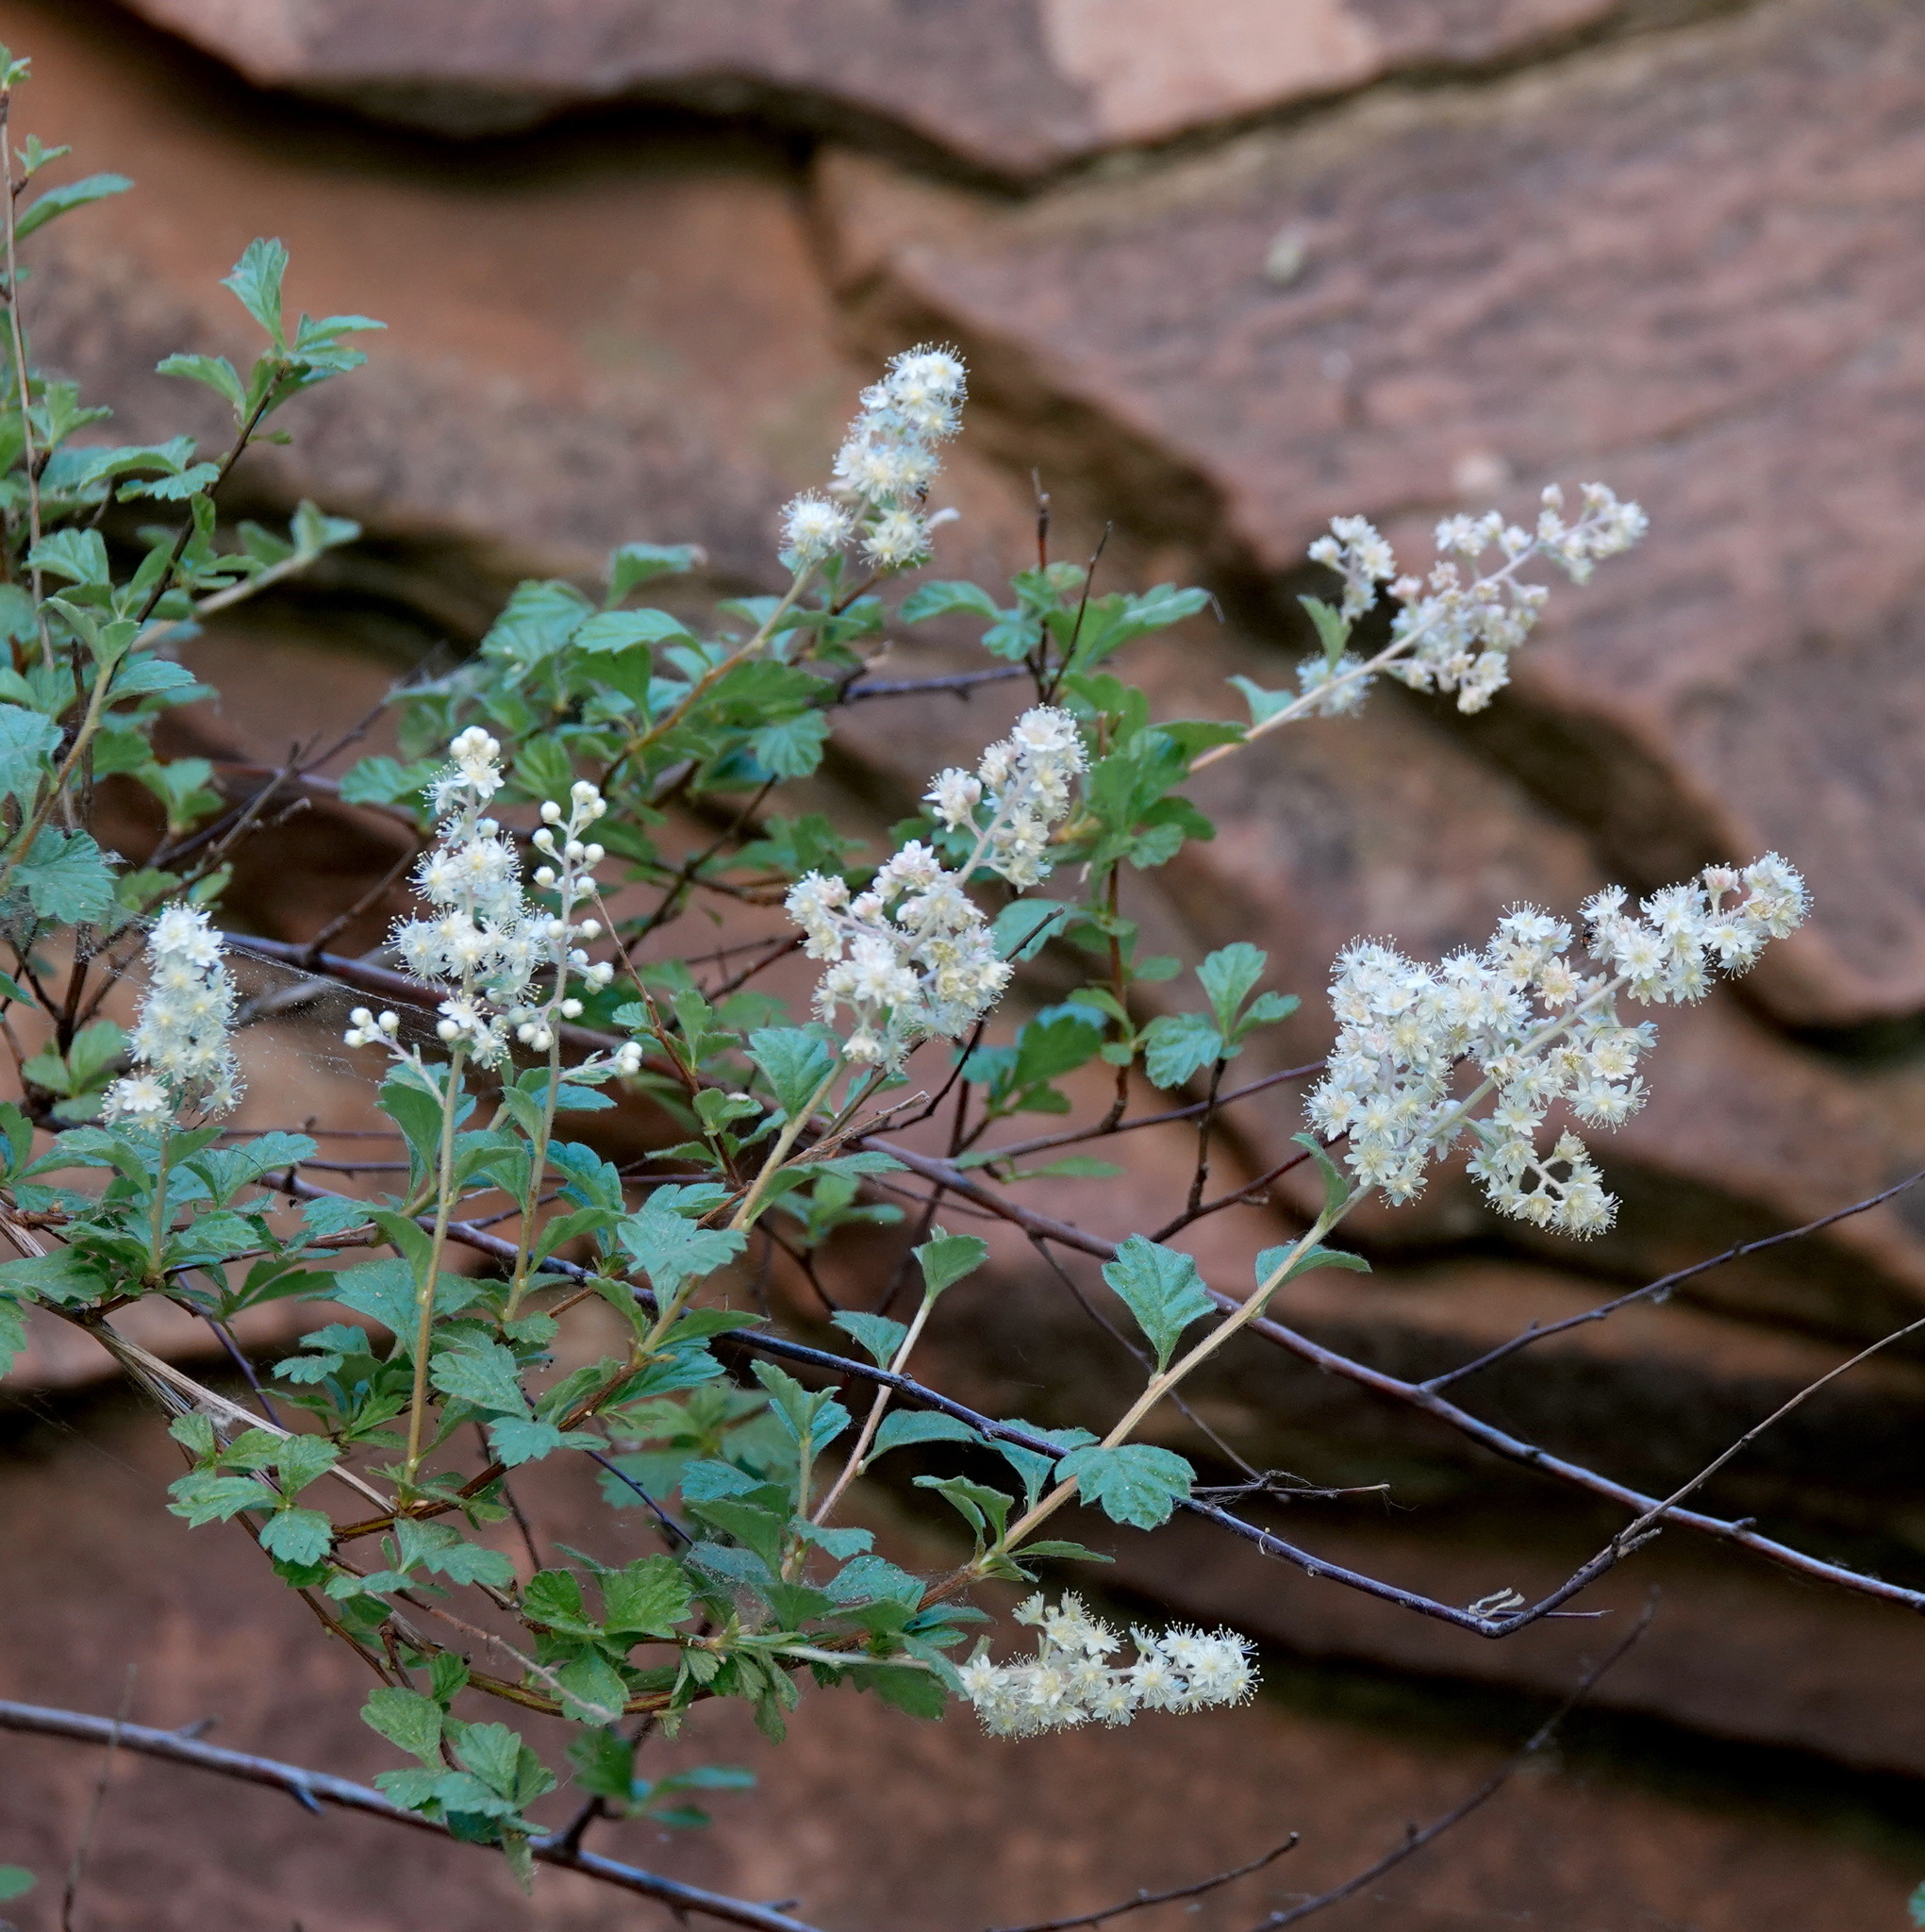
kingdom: Plantae
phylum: Tracheophyta
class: Magnoliopsida
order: Rosales
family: Rosaceae
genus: Holodiscus
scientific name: Holodiscus discolor
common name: Oceanspray
